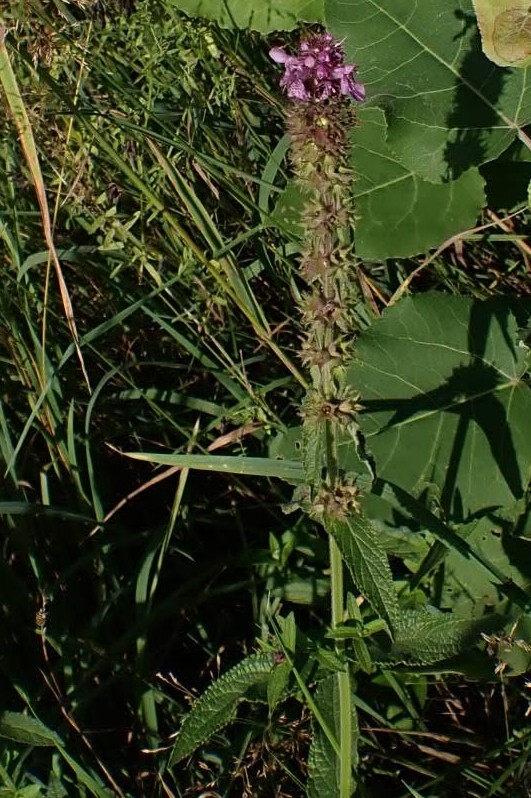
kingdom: Plantae
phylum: Tracheophyta
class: Magnoliopsida
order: Lamiales
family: Lamiaceae
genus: Stachys
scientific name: Stachys palustris
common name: Marsh woundwort
